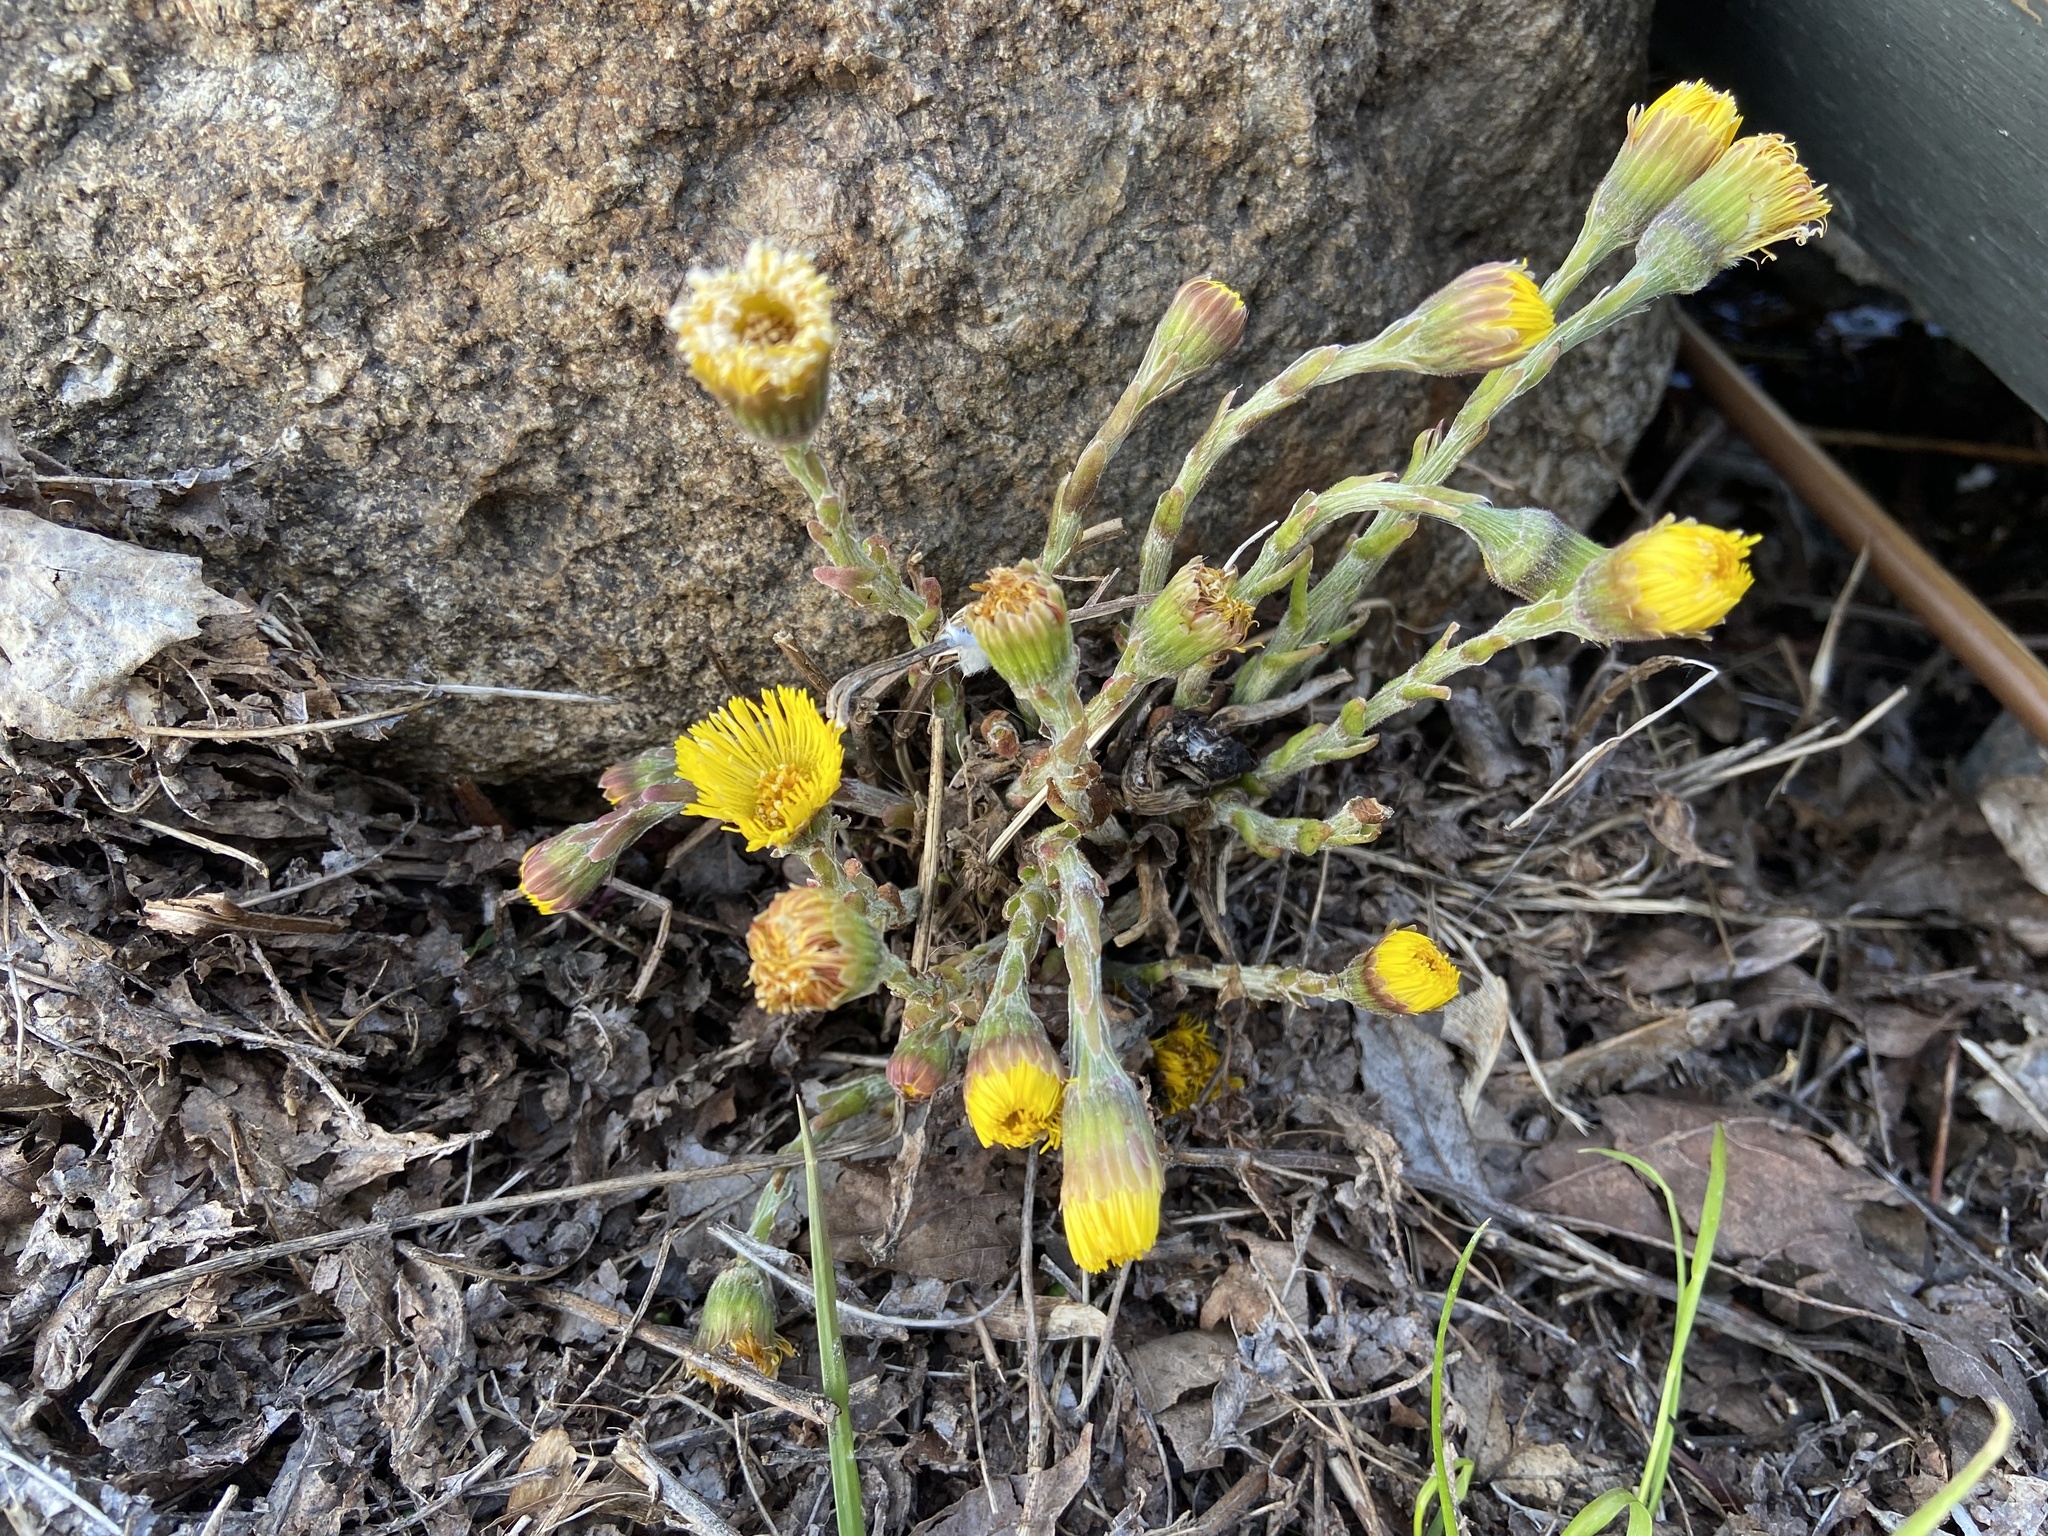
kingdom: Plantae
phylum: Tracheophyta
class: Magnoliopsida
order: Asterales
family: Asteraceae
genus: Tussilago
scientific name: Tussilago farfara
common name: Coltsfoot
